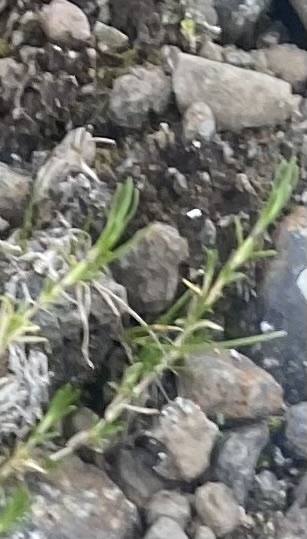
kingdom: Plantae
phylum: Tracheophyta
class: Magnoliopsida
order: Caryophyllales
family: Caryophyllaceae
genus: Cherleria
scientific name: Cherleria arctica
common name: Arctic sandwort
